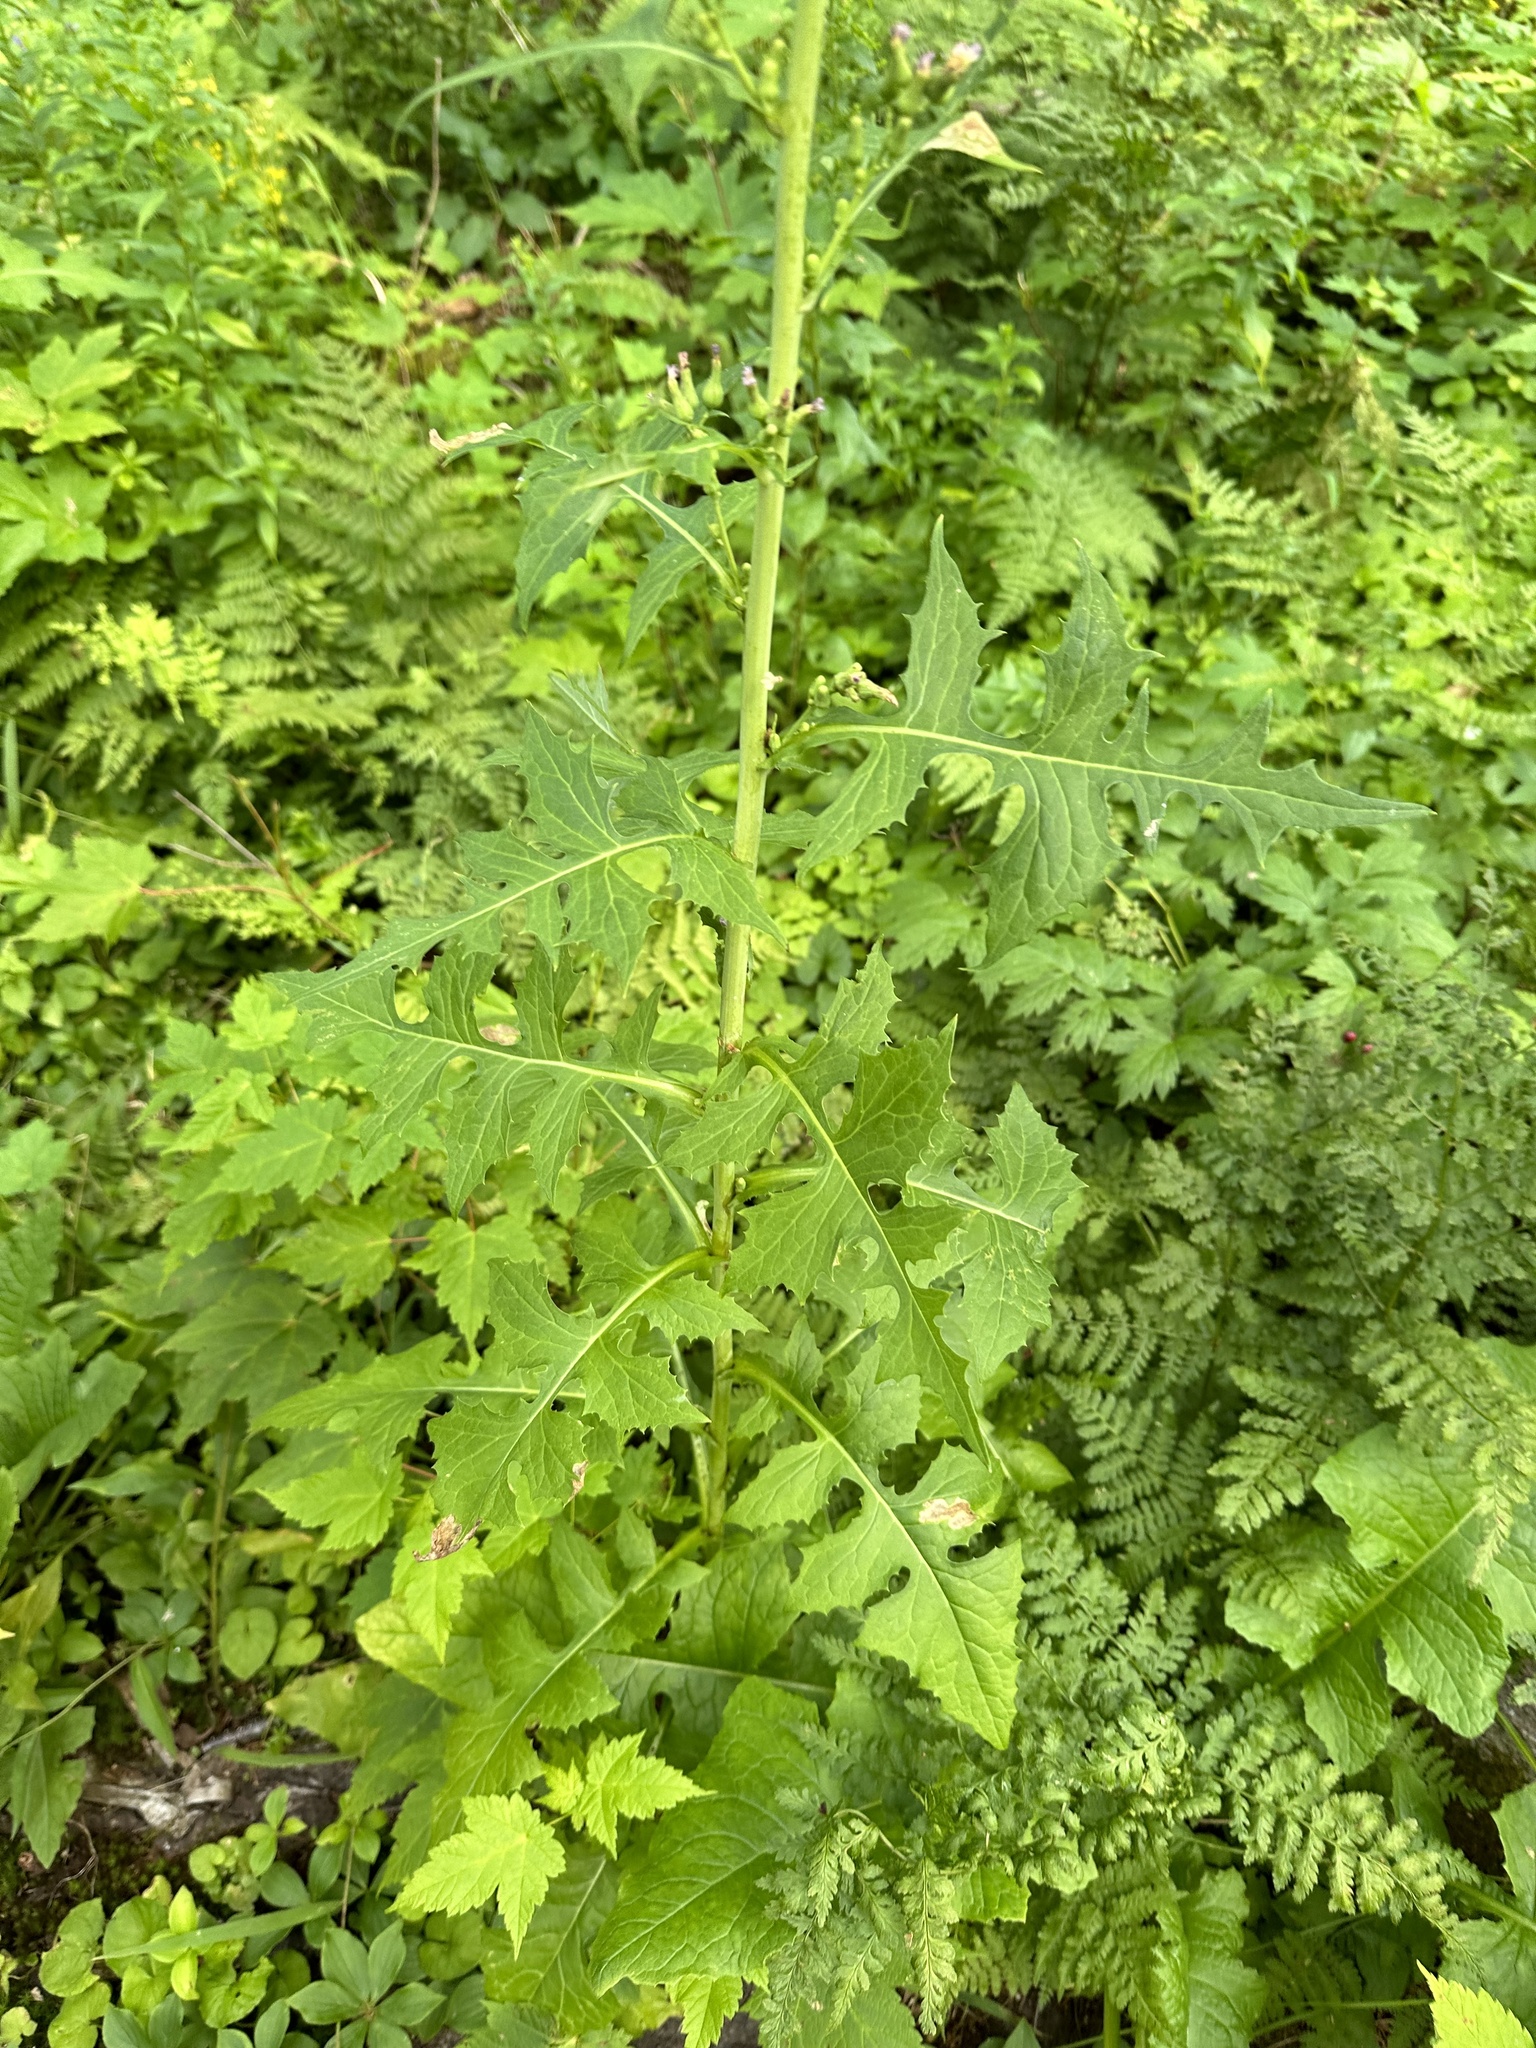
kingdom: Plantae
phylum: Tracheophyta
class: Magnoliopsida
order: Asterales
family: Asteraceae
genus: Lactuca
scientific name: Lactuca biennis
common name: Blue wood lettuce
